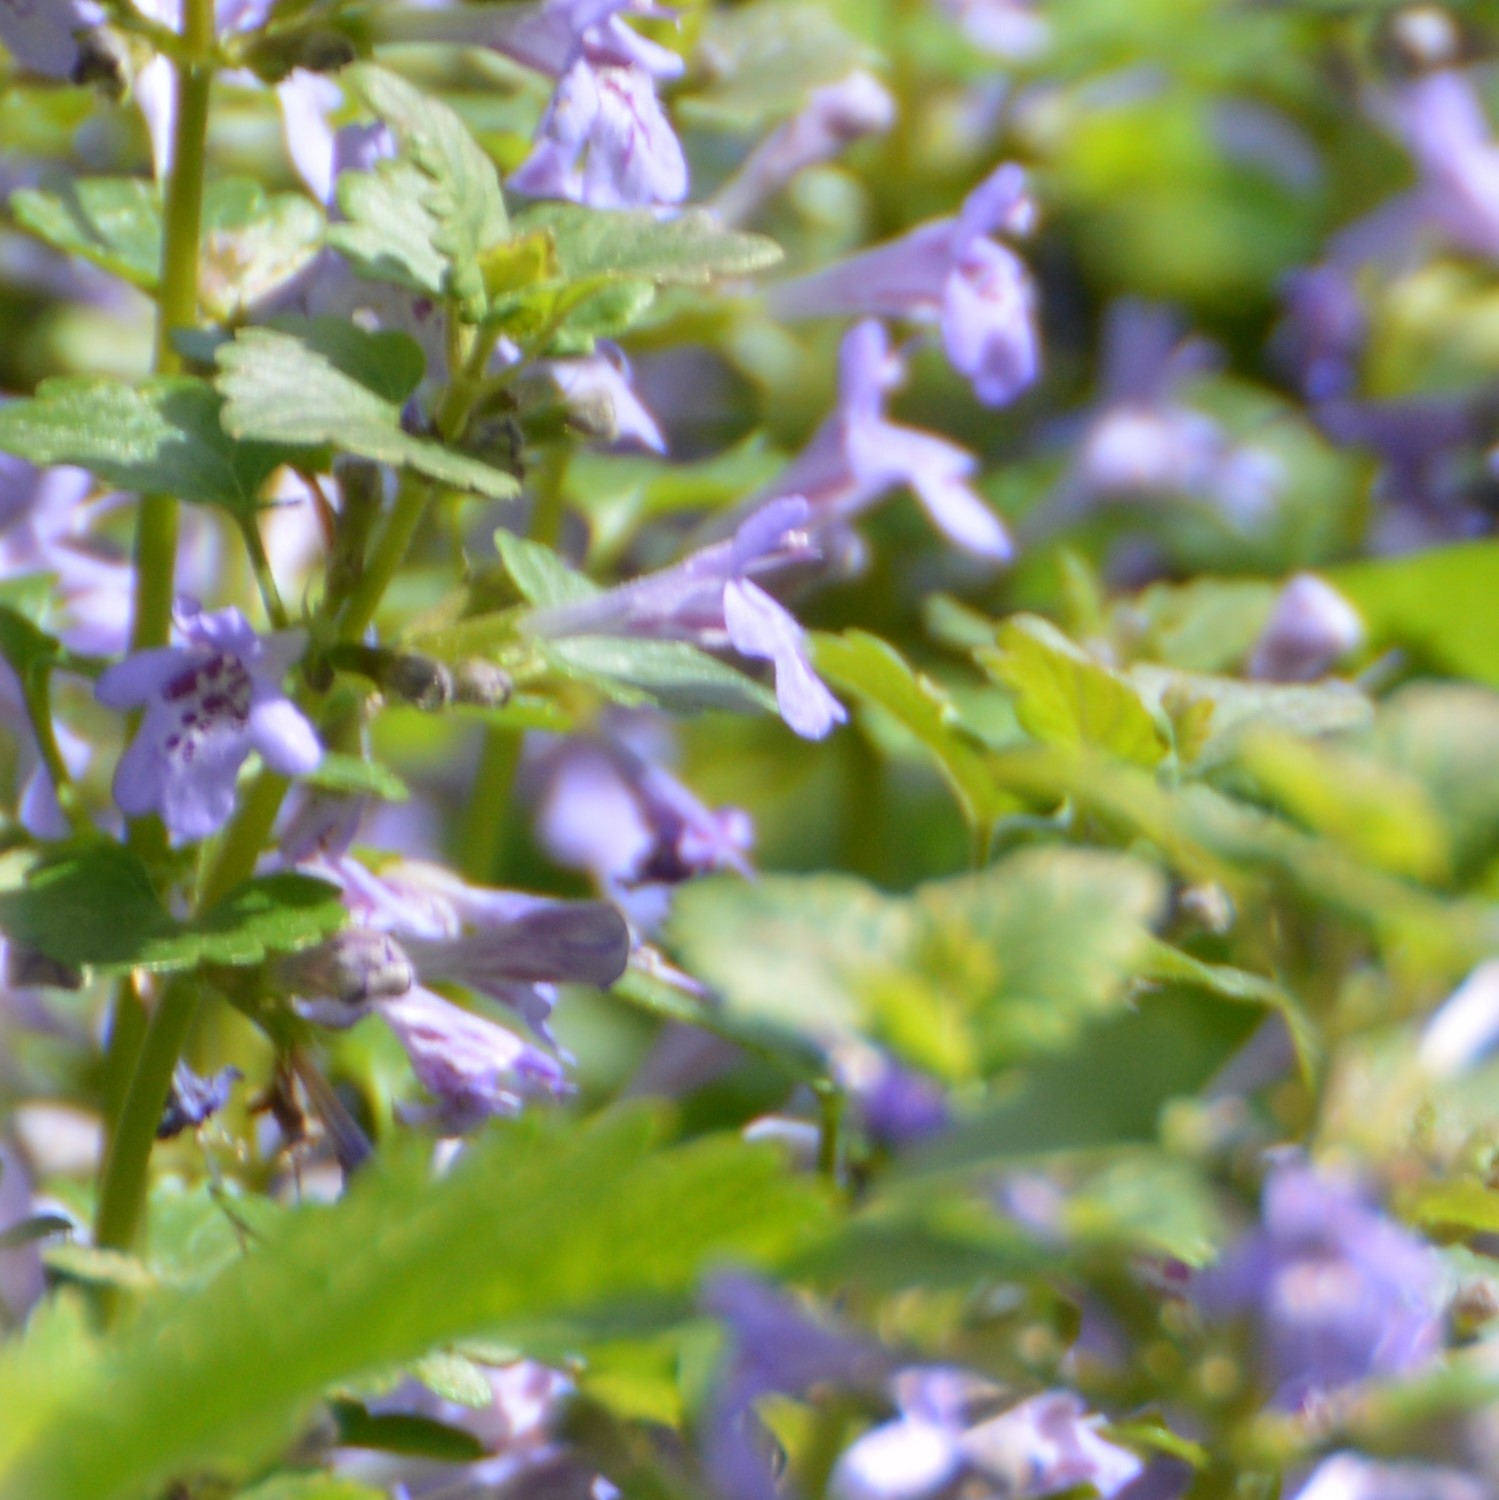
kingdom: Plantae
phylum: Tracheophyta
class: Magnoliopsida
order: Lamiales
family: Lamiaceae
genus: Glechoma
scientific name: Glechoma hederacea
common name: Ground ivy
